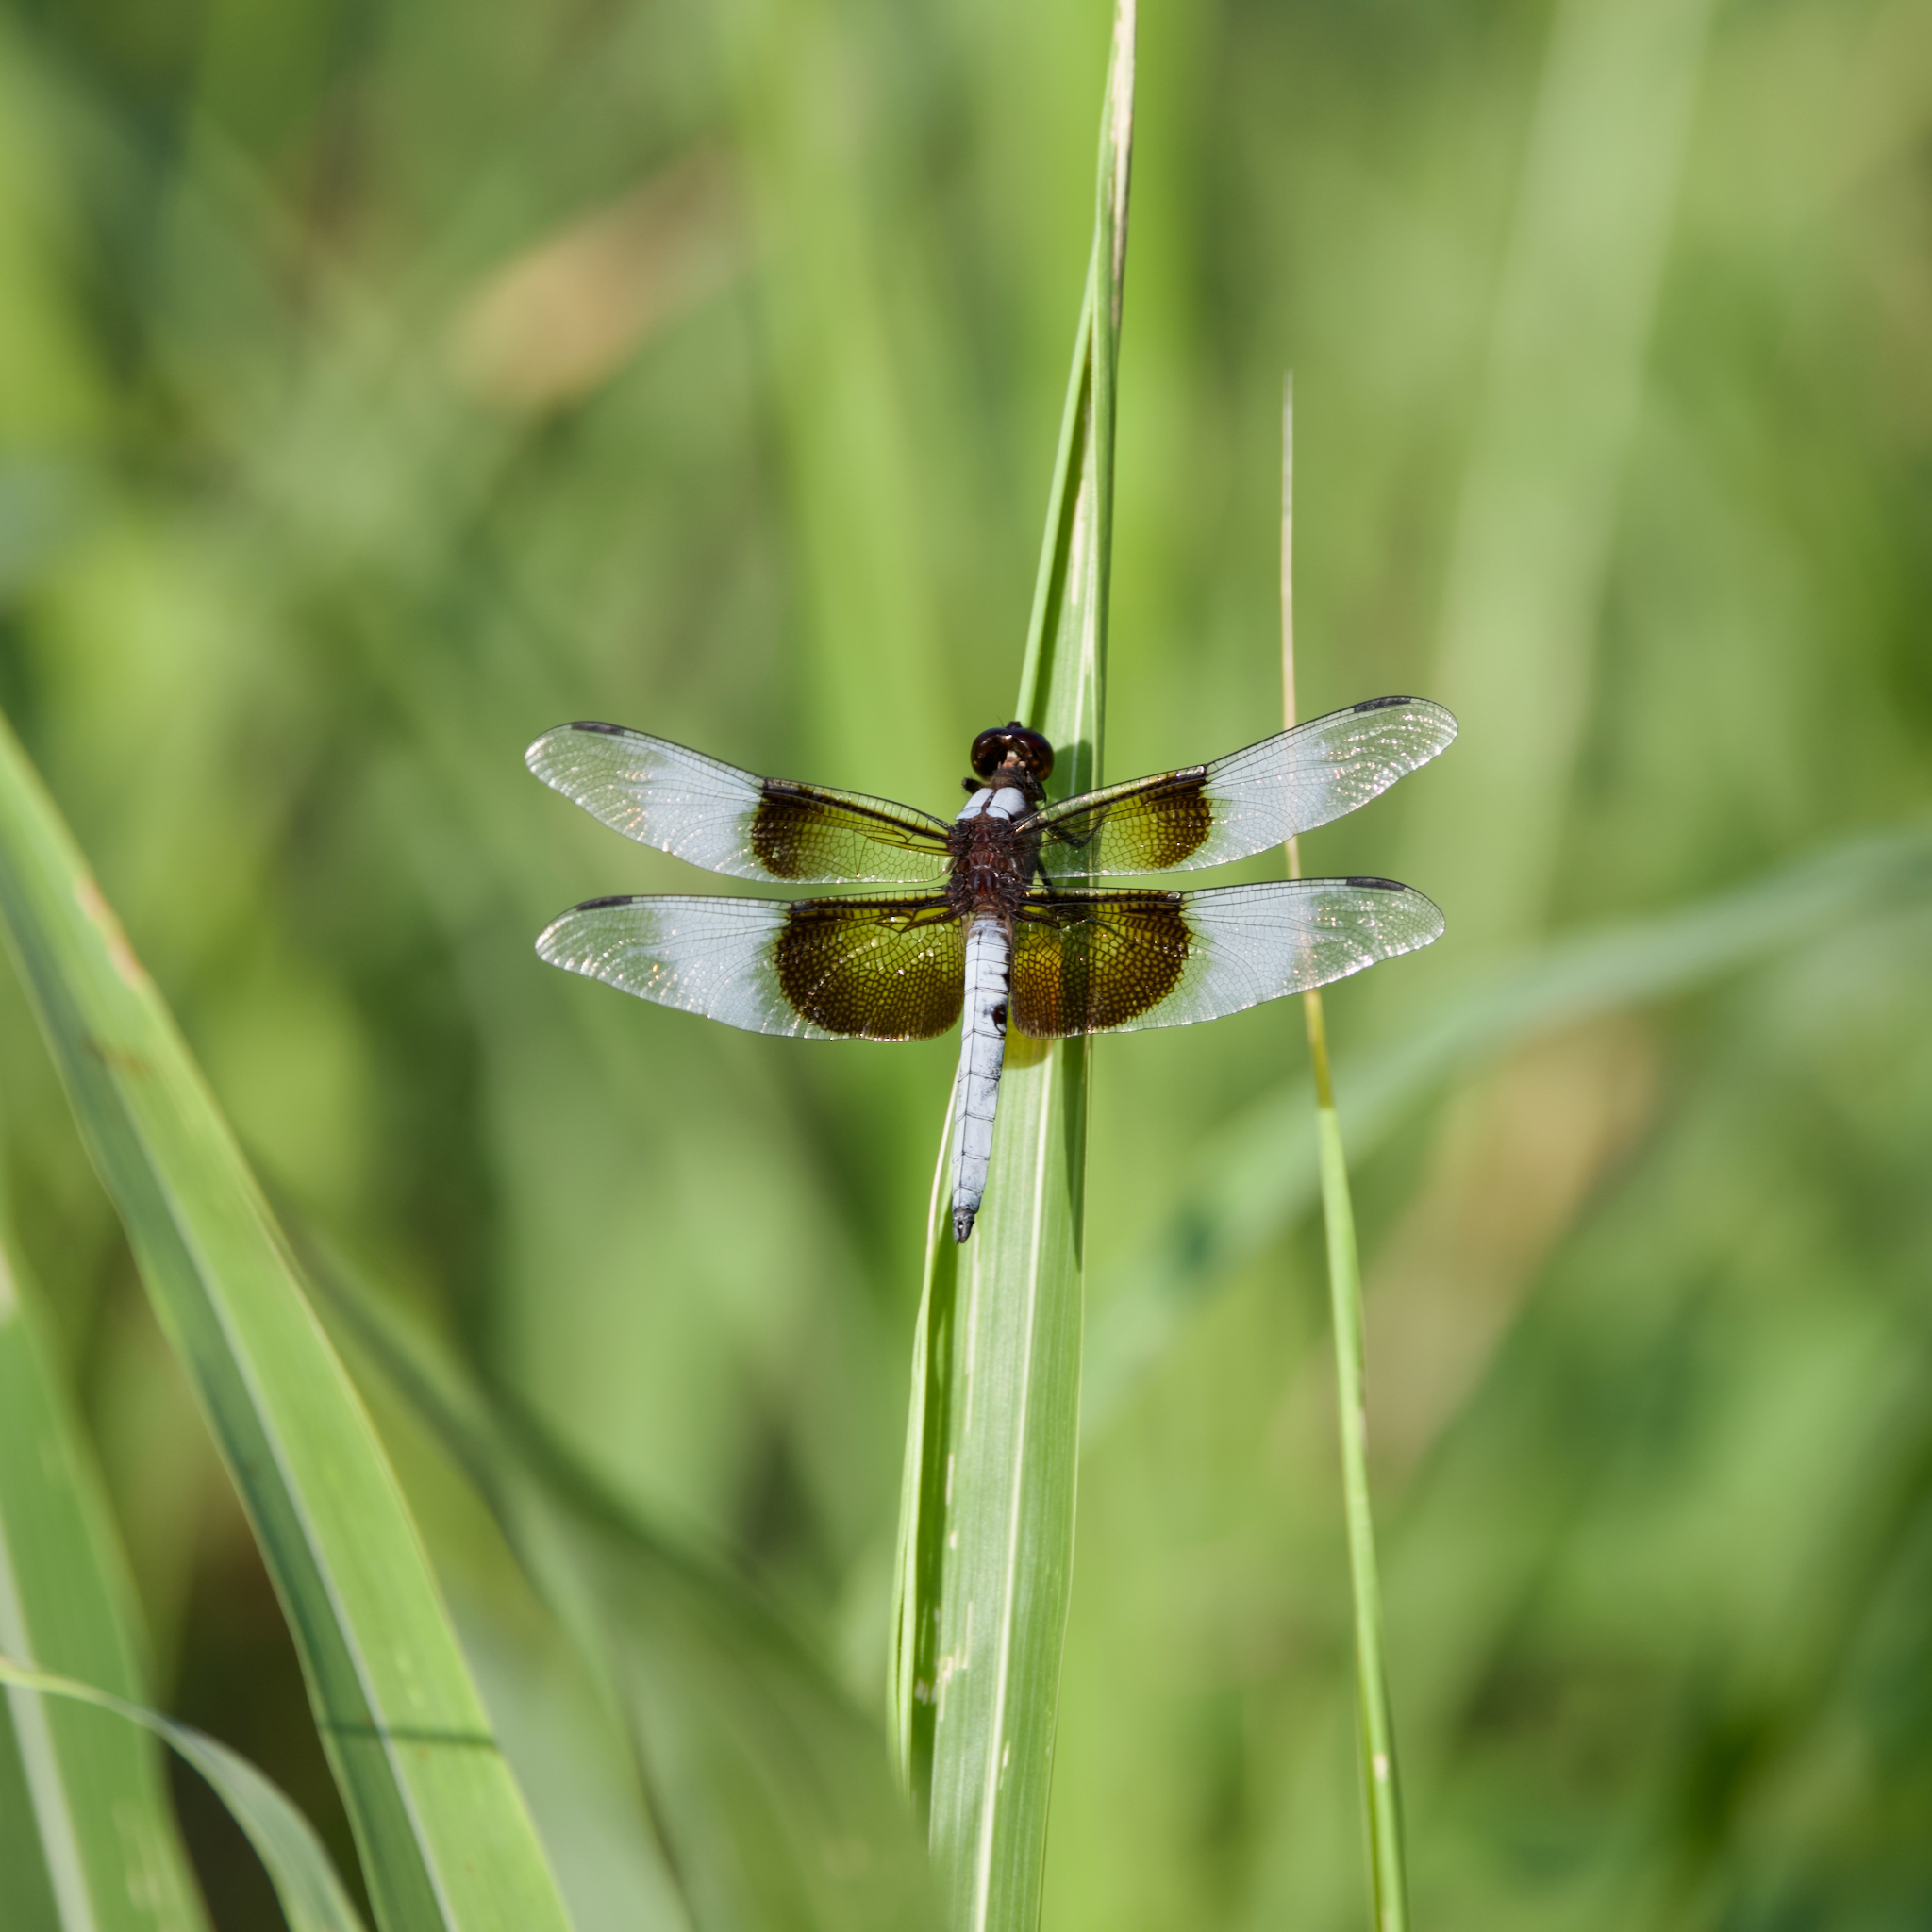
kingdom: Animalia
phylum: Arthropoda
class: Insecta
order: Odonata
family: Libellulidae
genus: Libellula
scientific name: Libellula luctuosa
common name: Widow skimmer
